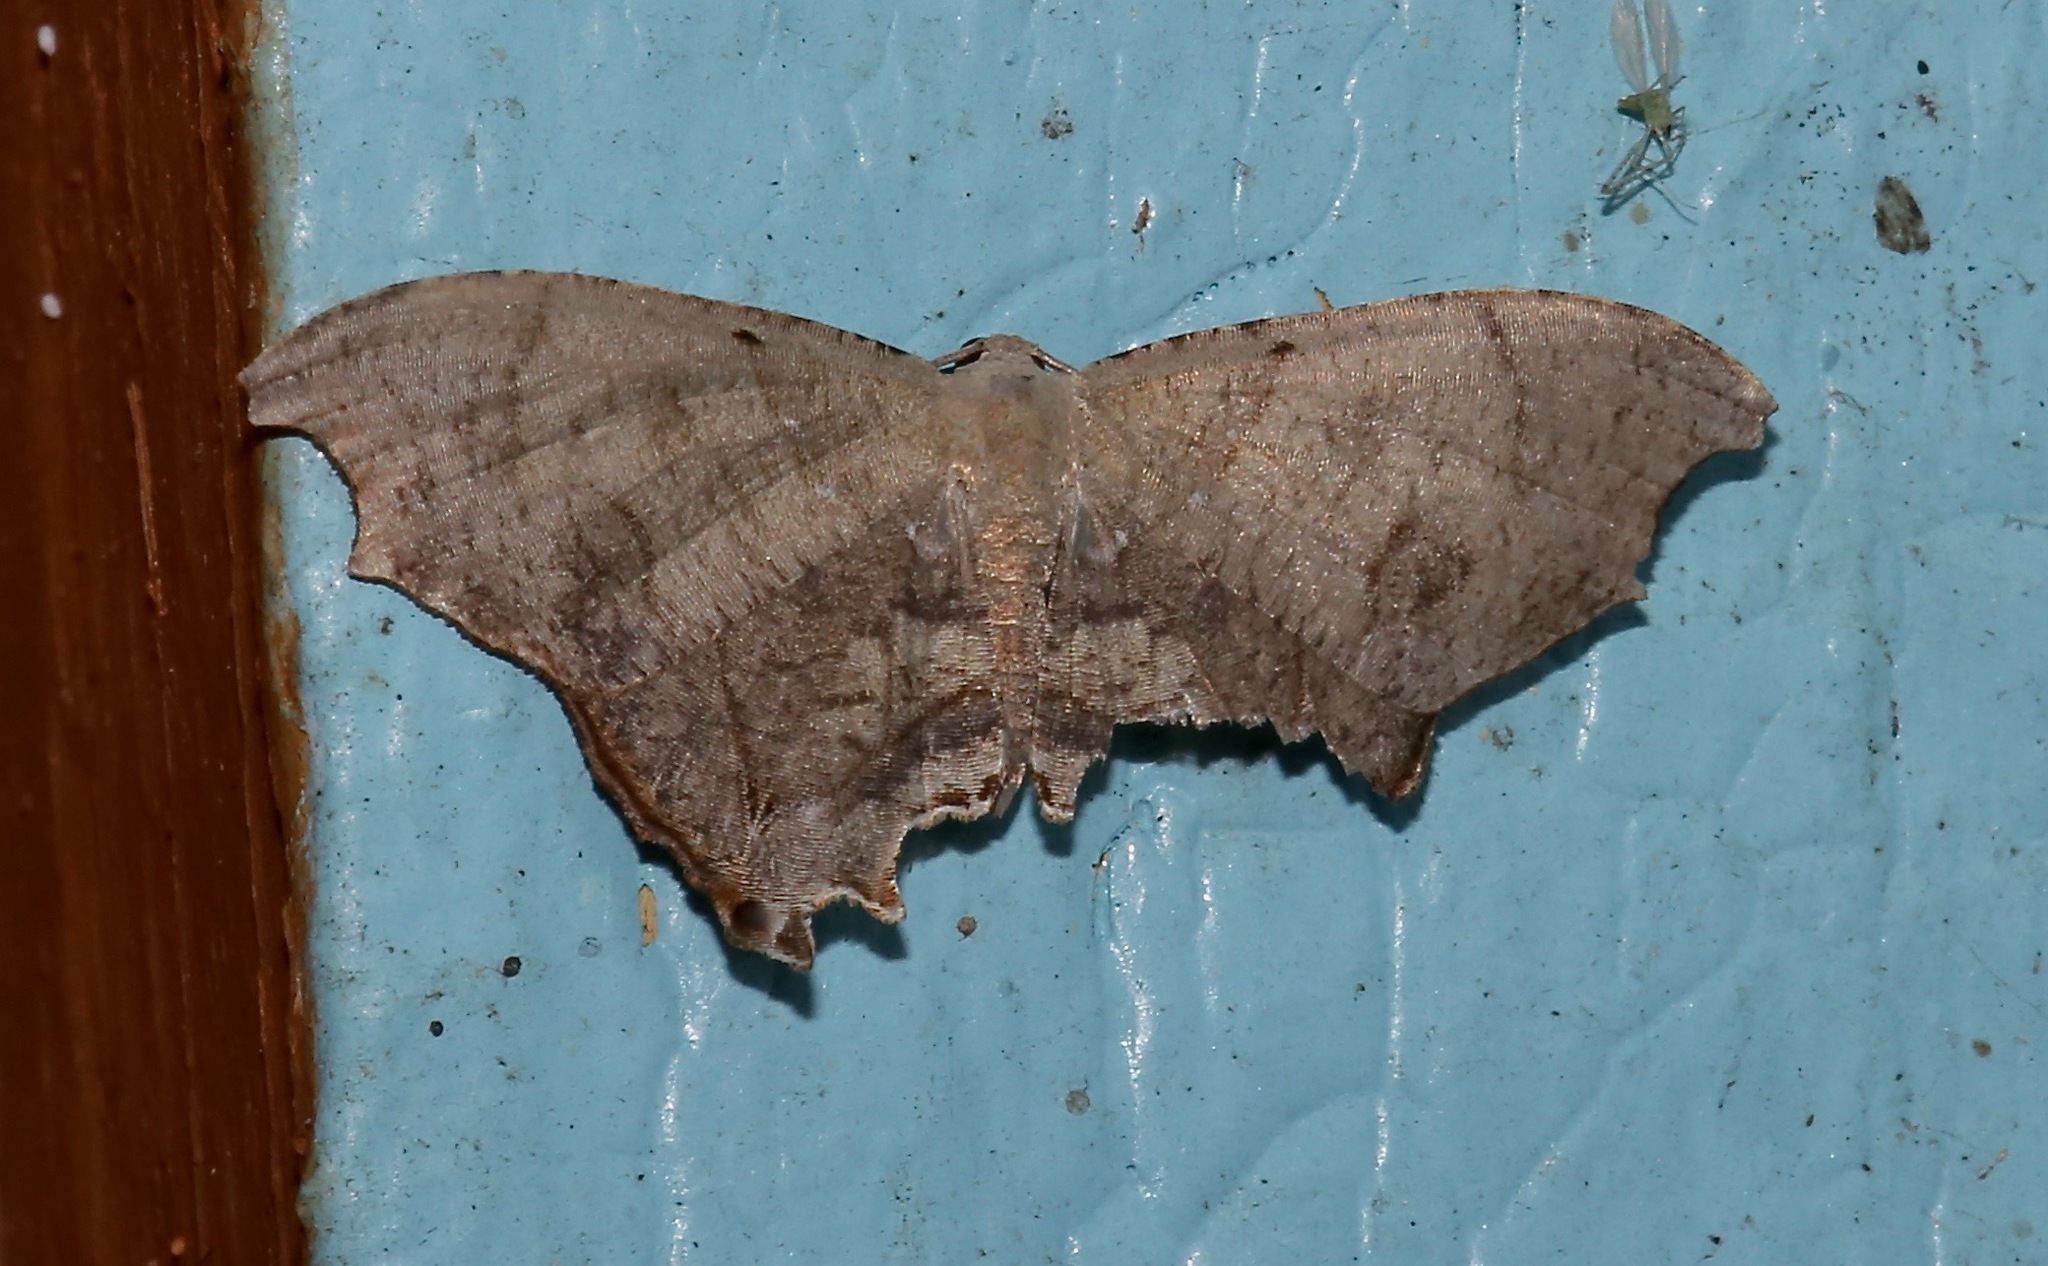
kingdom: Animalia
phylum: Arthropoda
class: Insecta
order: Lepidoptera
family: Uraniidae
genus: Trotorhombia
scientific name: Trotorhombia metachromata
